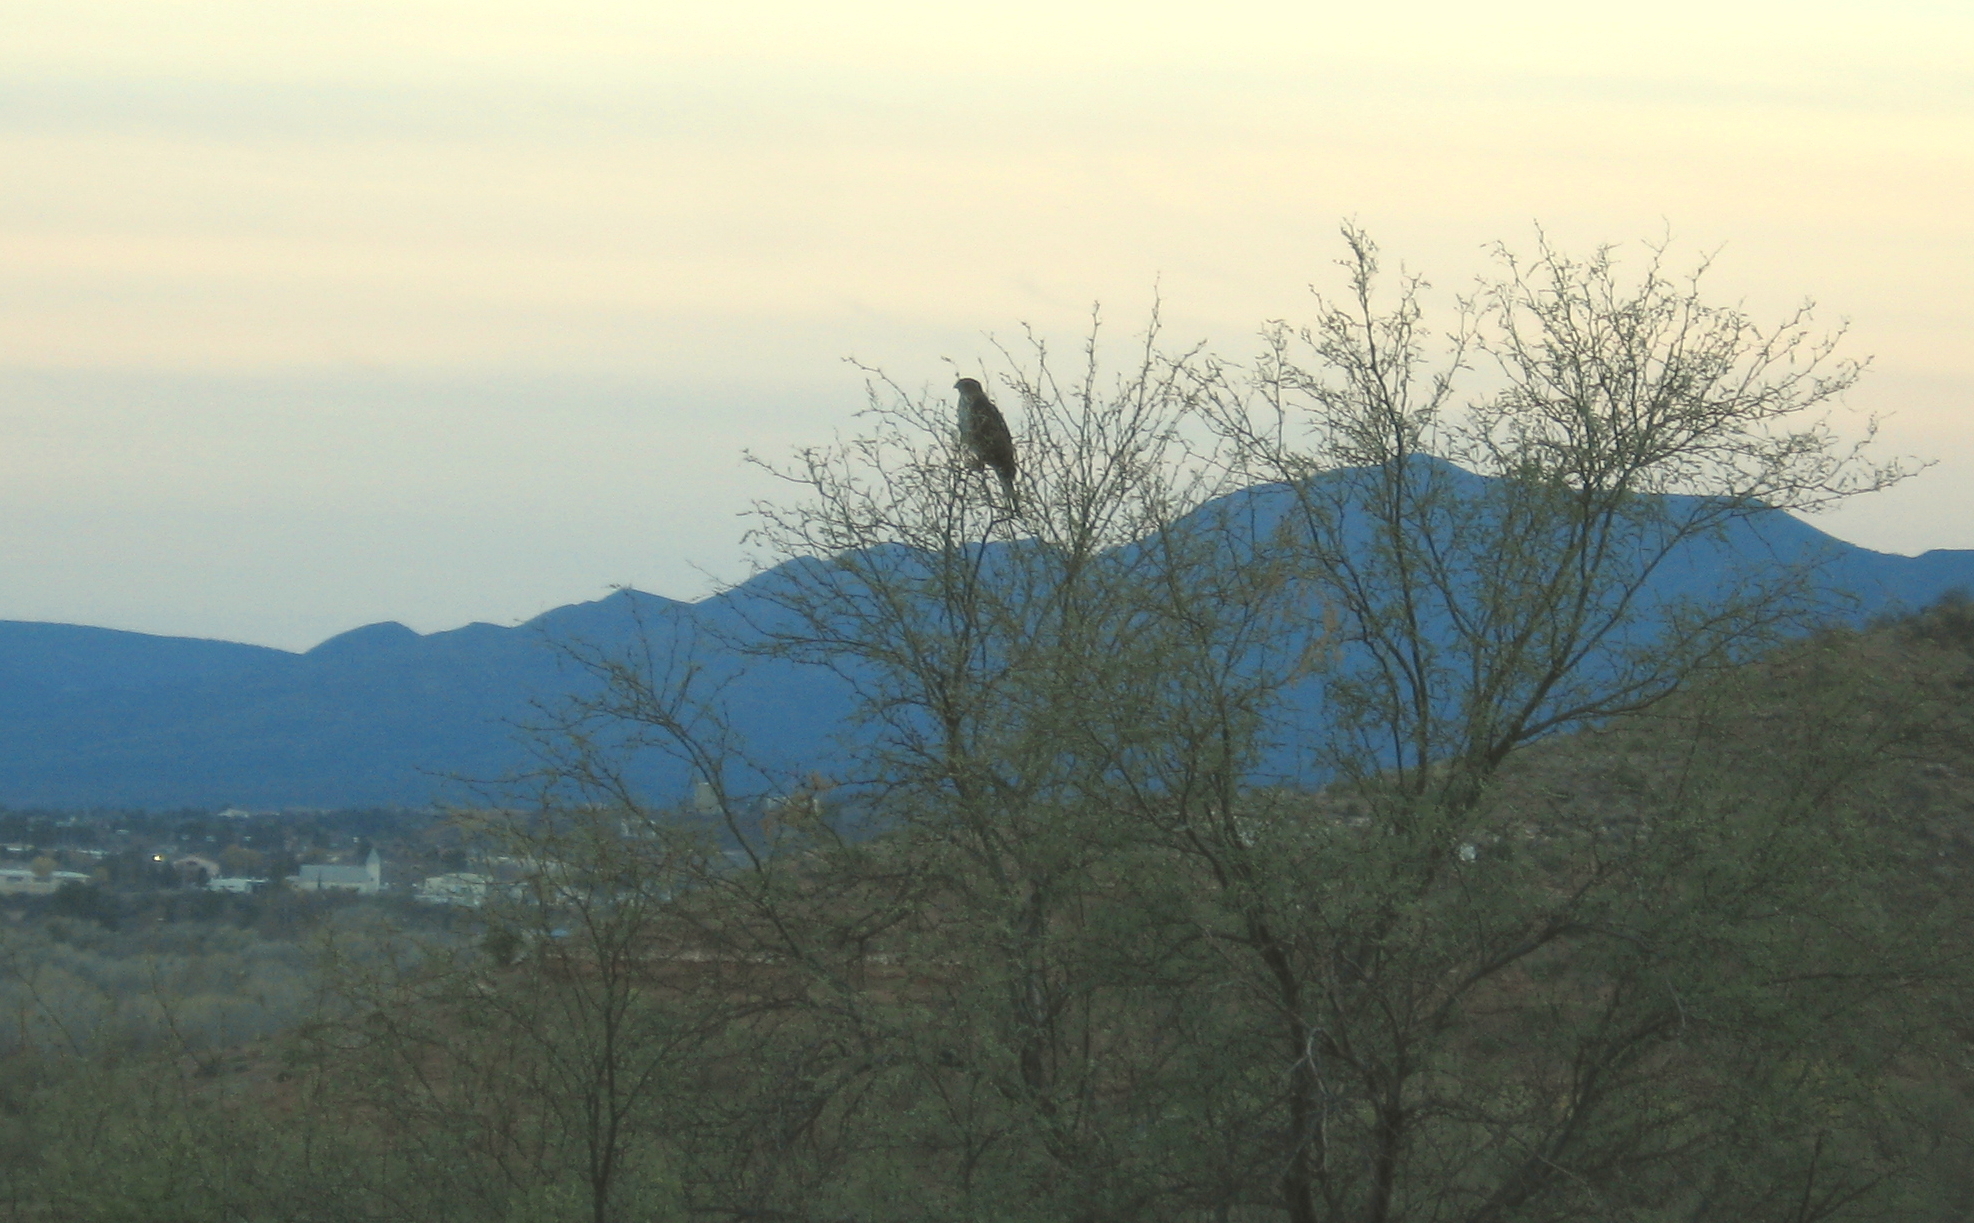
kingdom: Animalia
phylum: Chordata
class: Aves
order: Accipitriformes
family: Accipitridae
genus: Accipiter
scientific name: Accipiter cooperii
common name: Cooper's hawk
